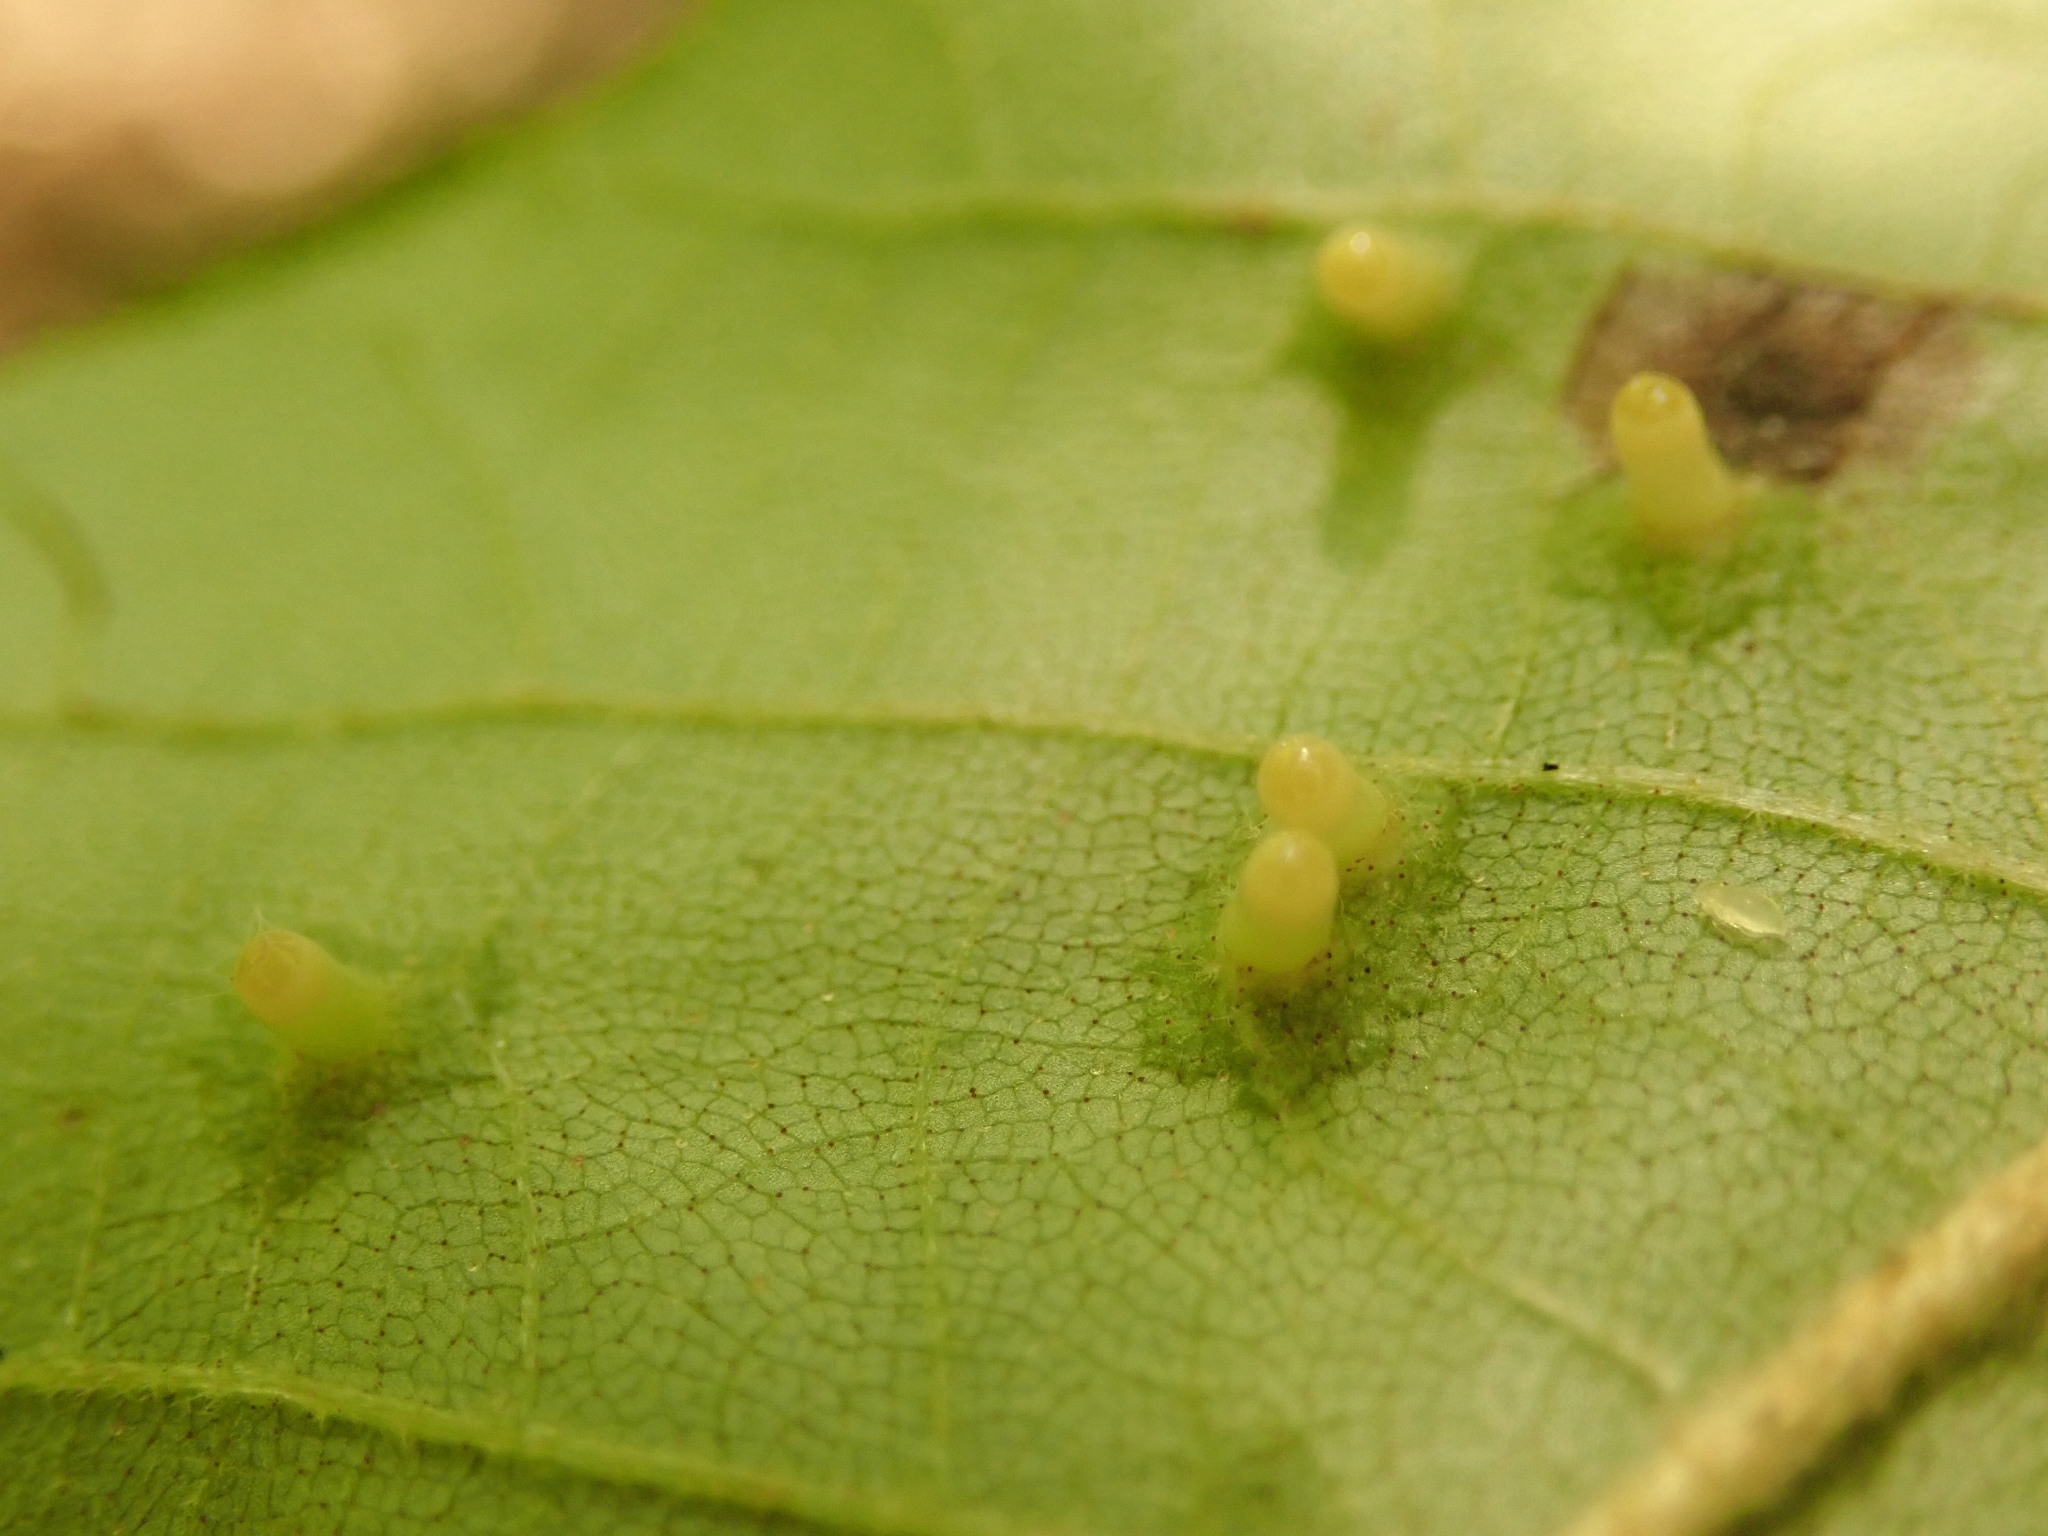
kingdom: Animalia
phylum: Arthropoda
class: Insecta
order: Diptera
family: Cecidomyiidae
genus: Caryomyia
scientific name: Caryomyia tubicola
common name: Hickory bullet gall midge
